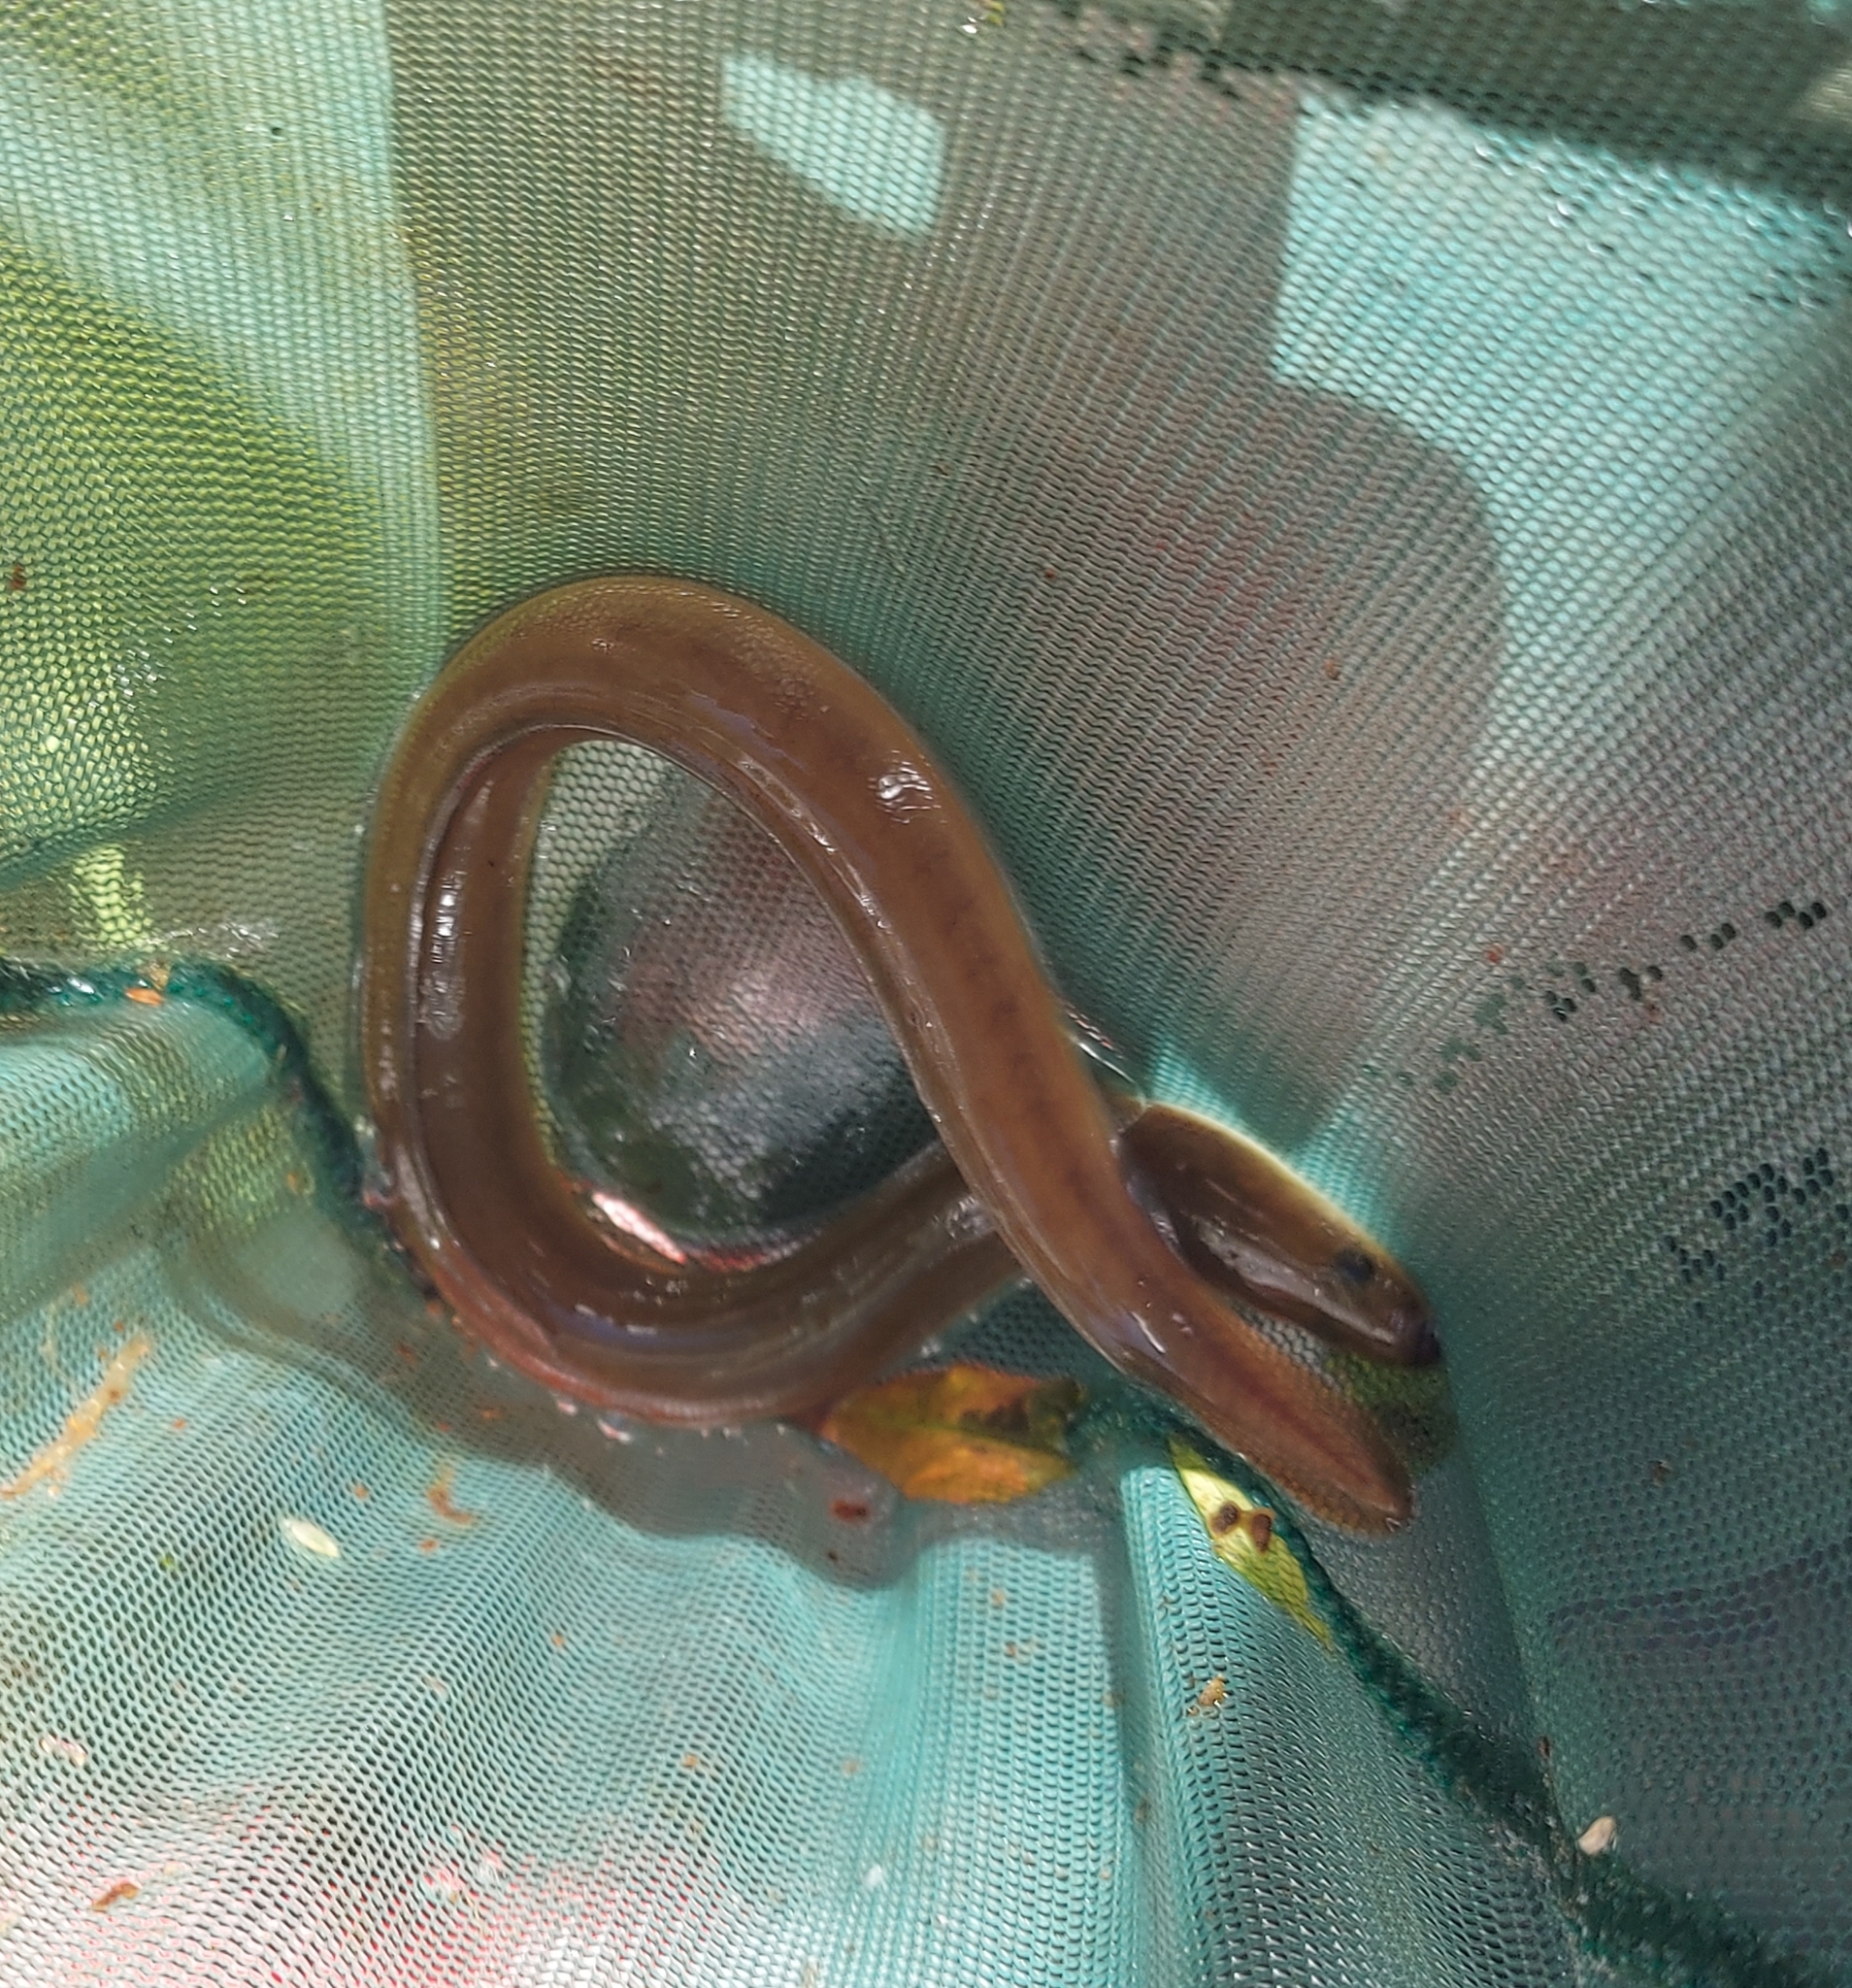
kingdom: Animalia
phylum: Chordata
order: Anguilliformes
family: Anguillidae
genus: Anguilla
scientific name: Anguilla rostrata
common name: American eel
